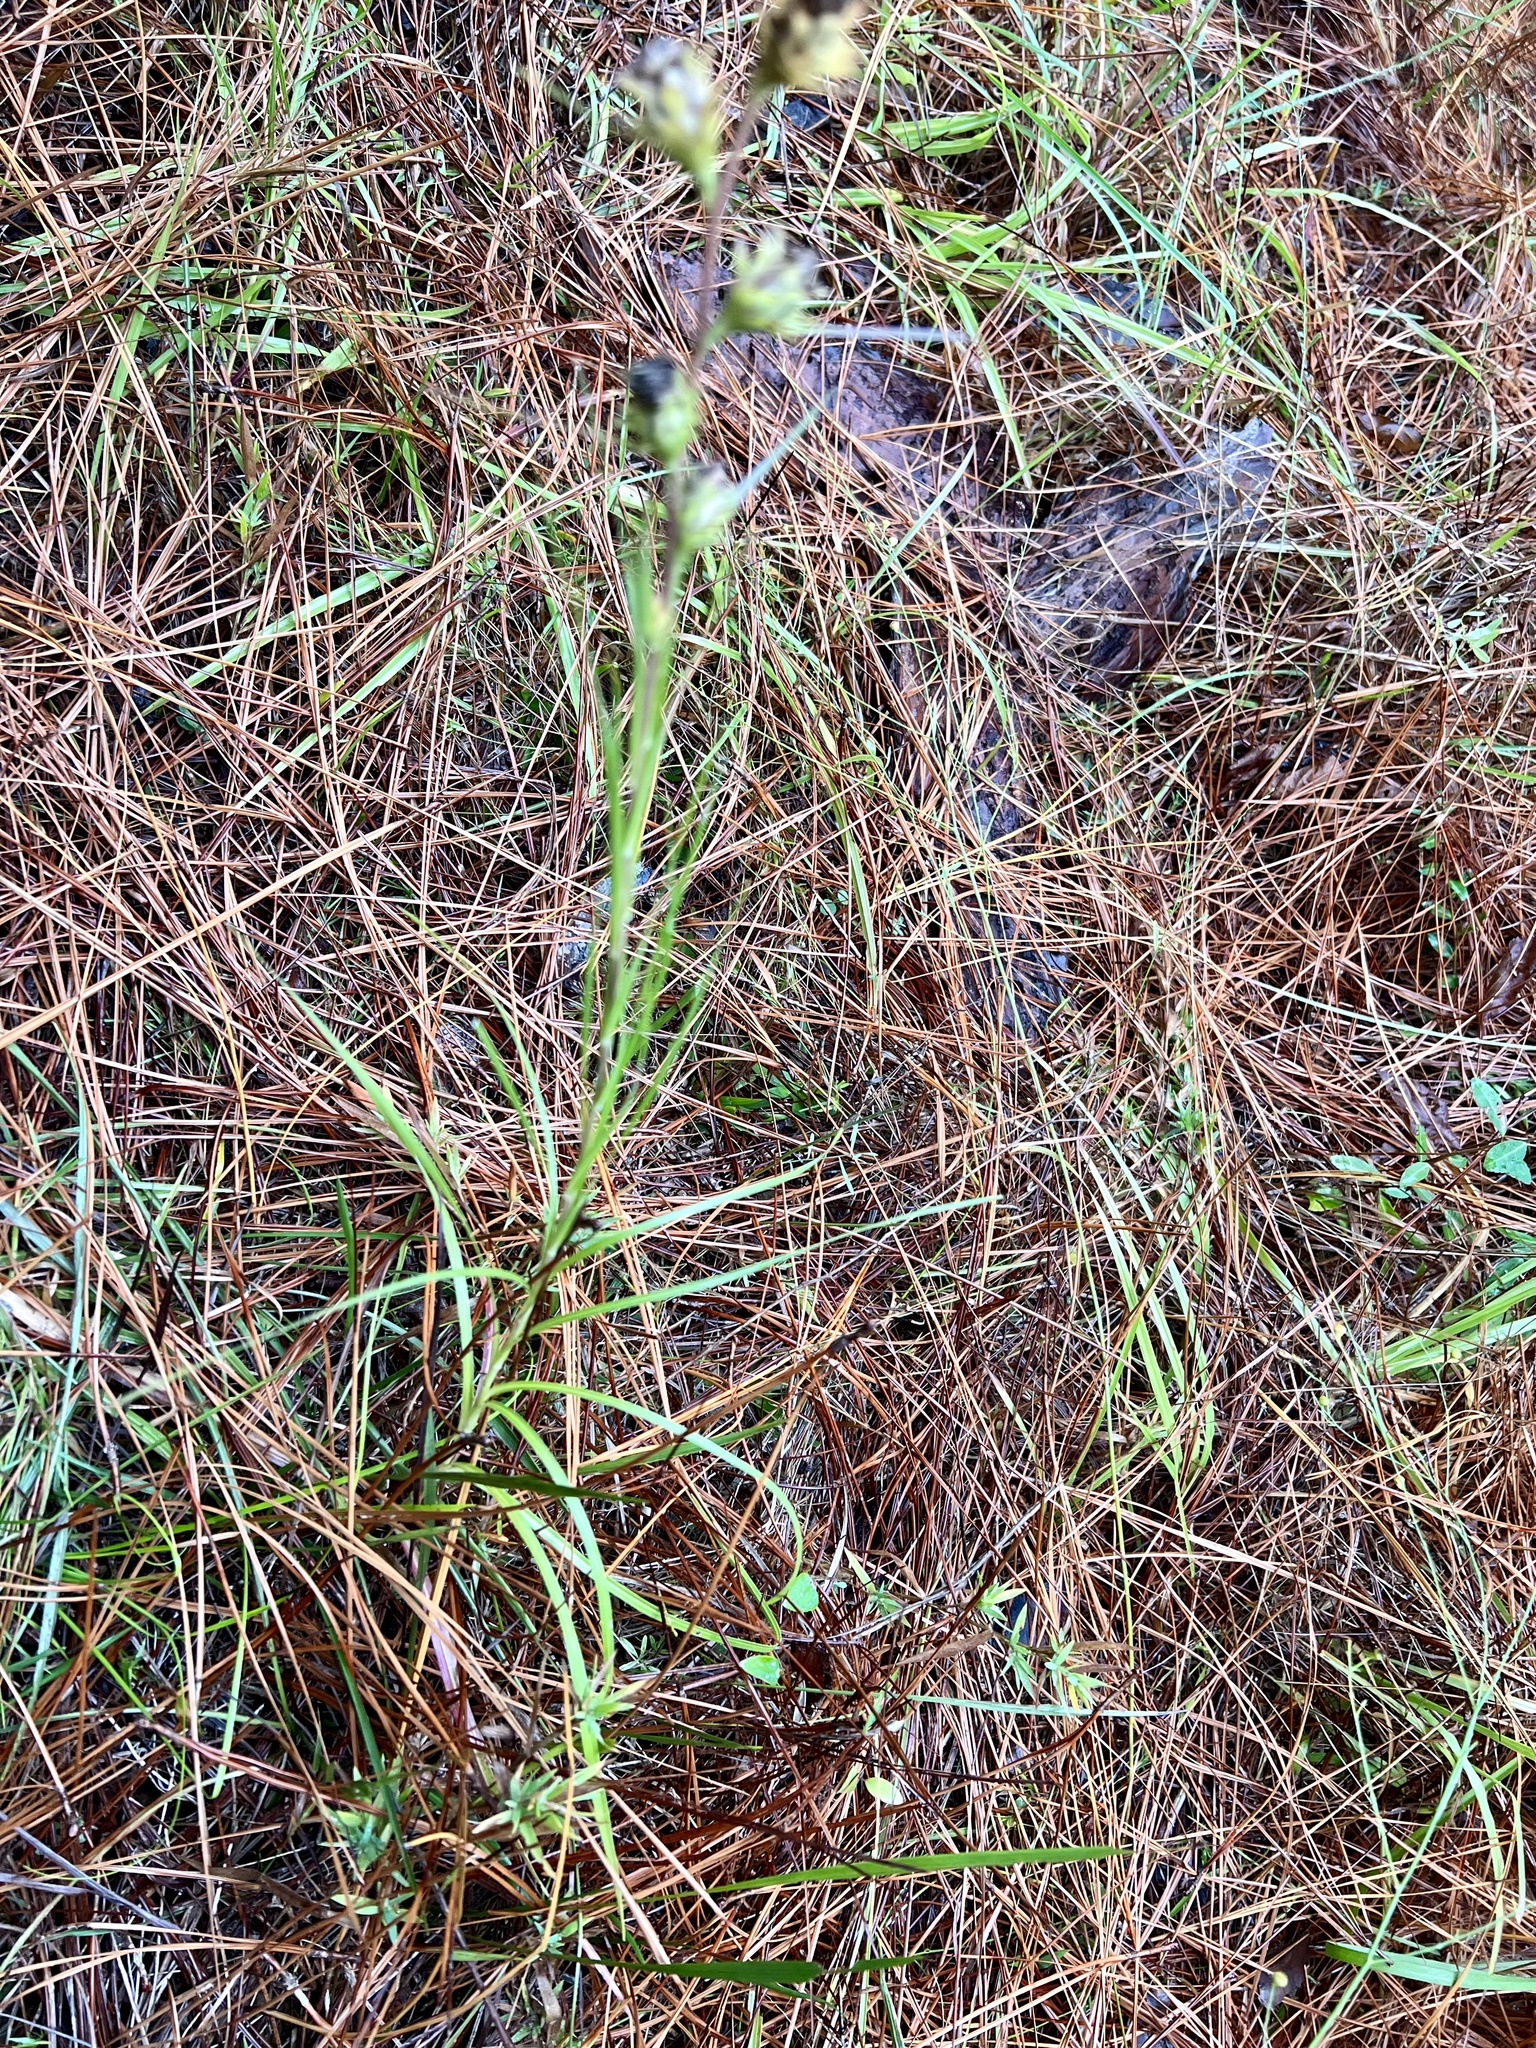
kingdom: Plantae
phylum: Tracheophyta
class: Magnoliopsida
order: Asterales
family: Asteraceae
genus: Liatris
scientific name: Liatris squarrosa
